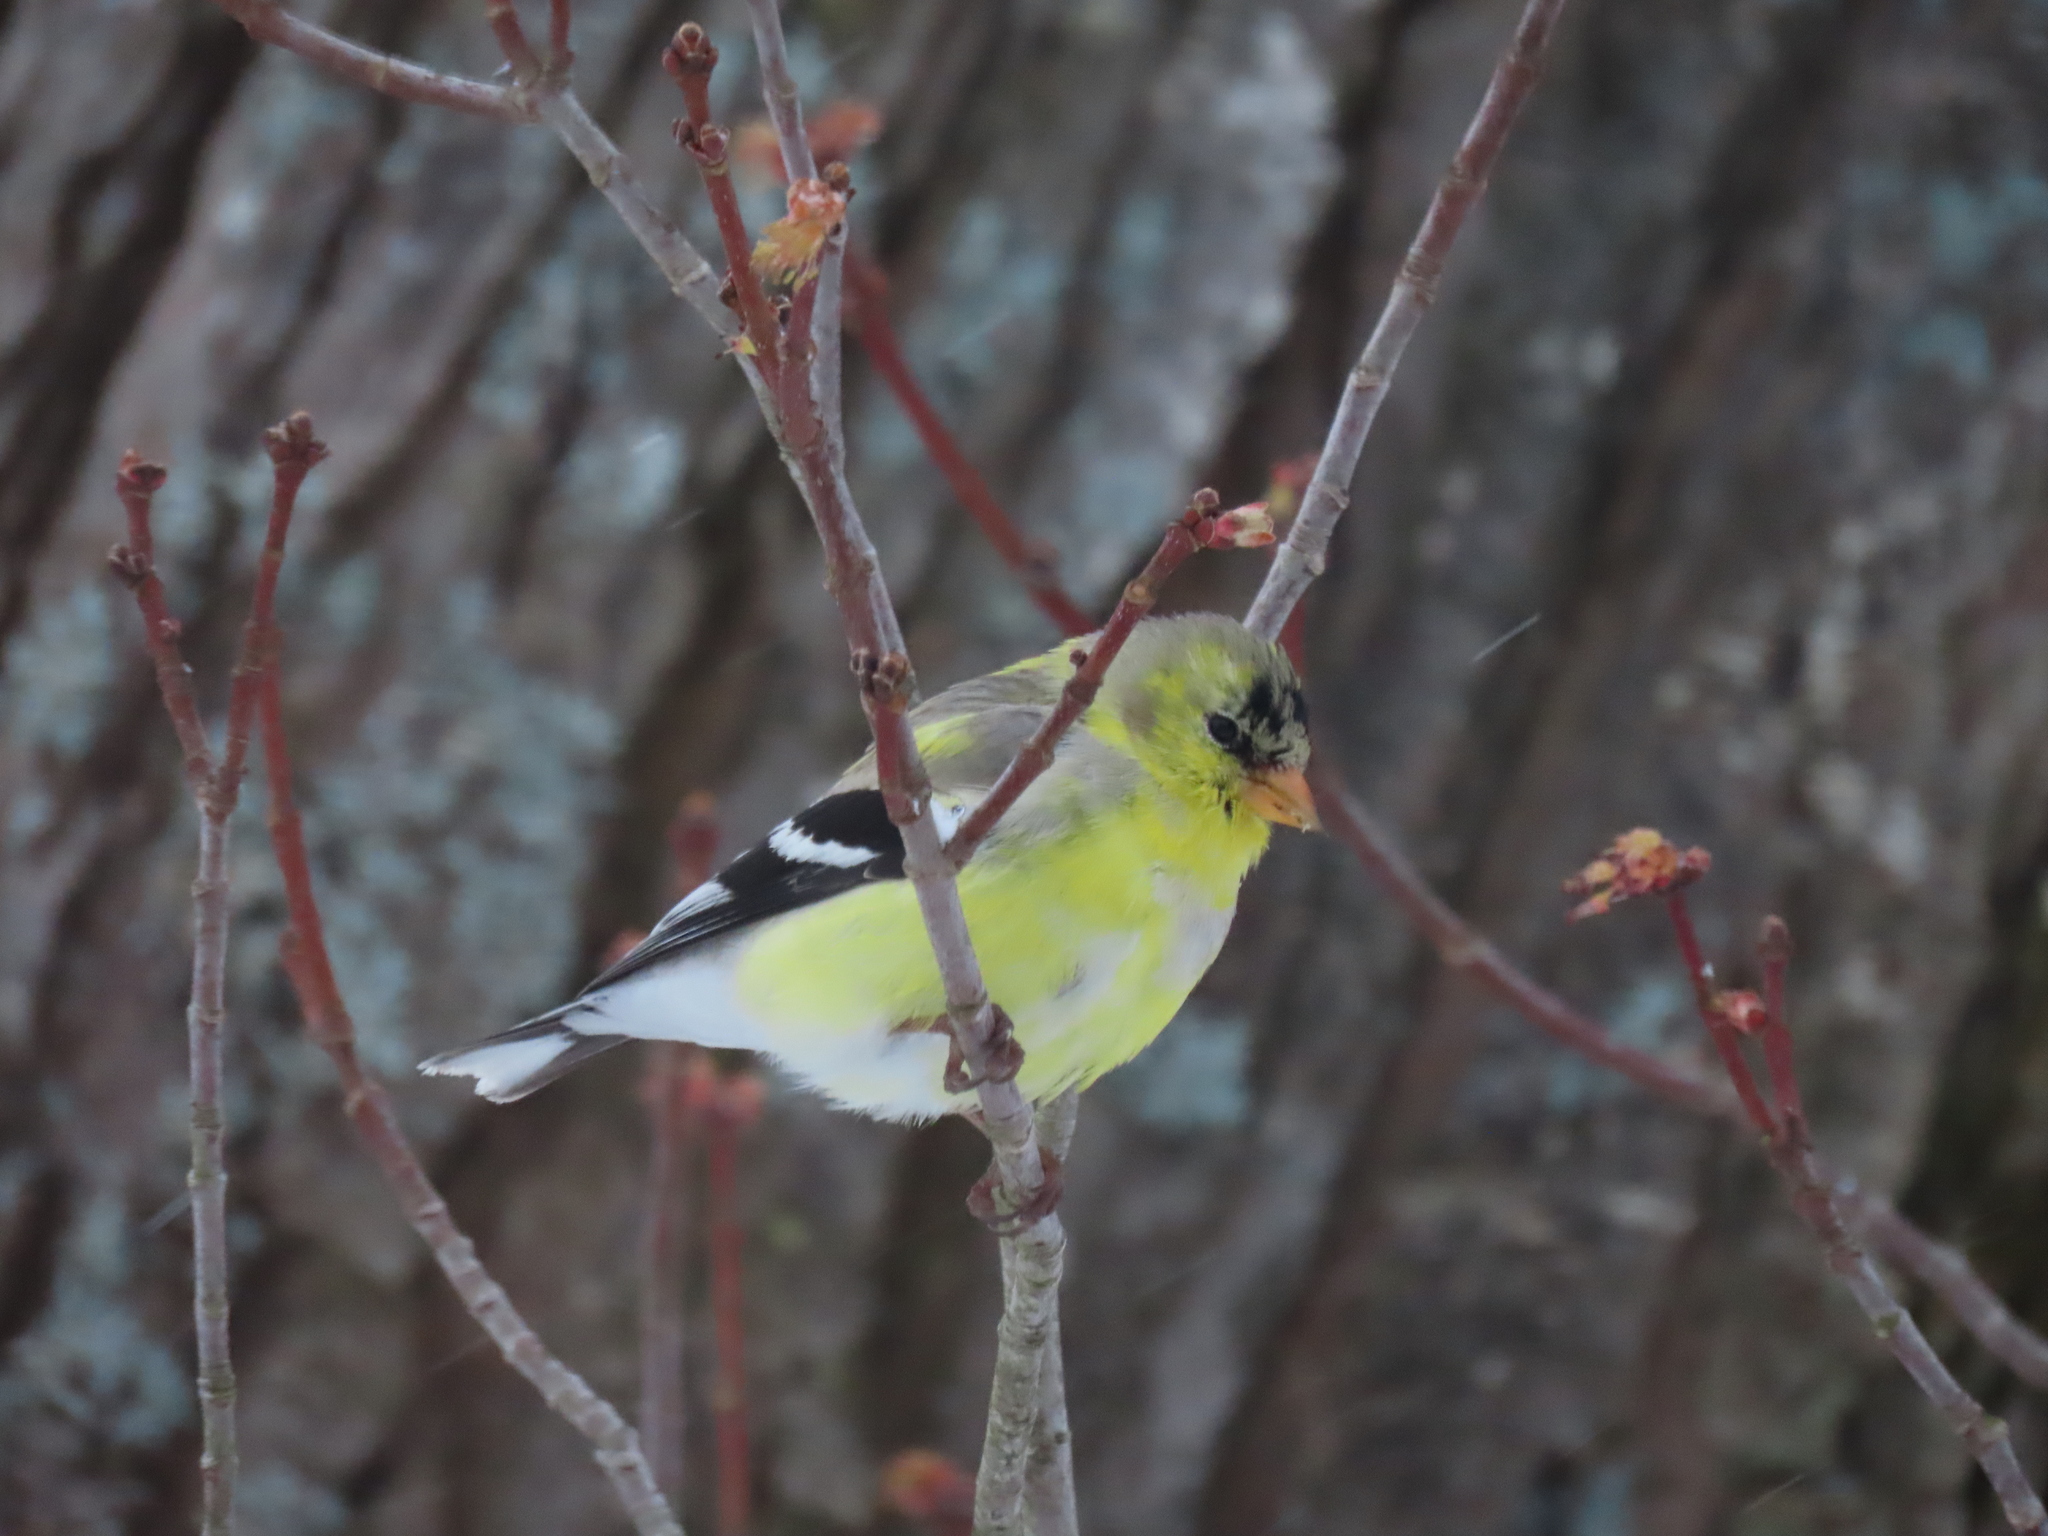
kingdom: Animalia
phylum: Chordata
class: Aves
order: Passeriformes
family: Fringillidae
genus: Spinus
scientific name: Spinus tristis
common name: American goldfinch
